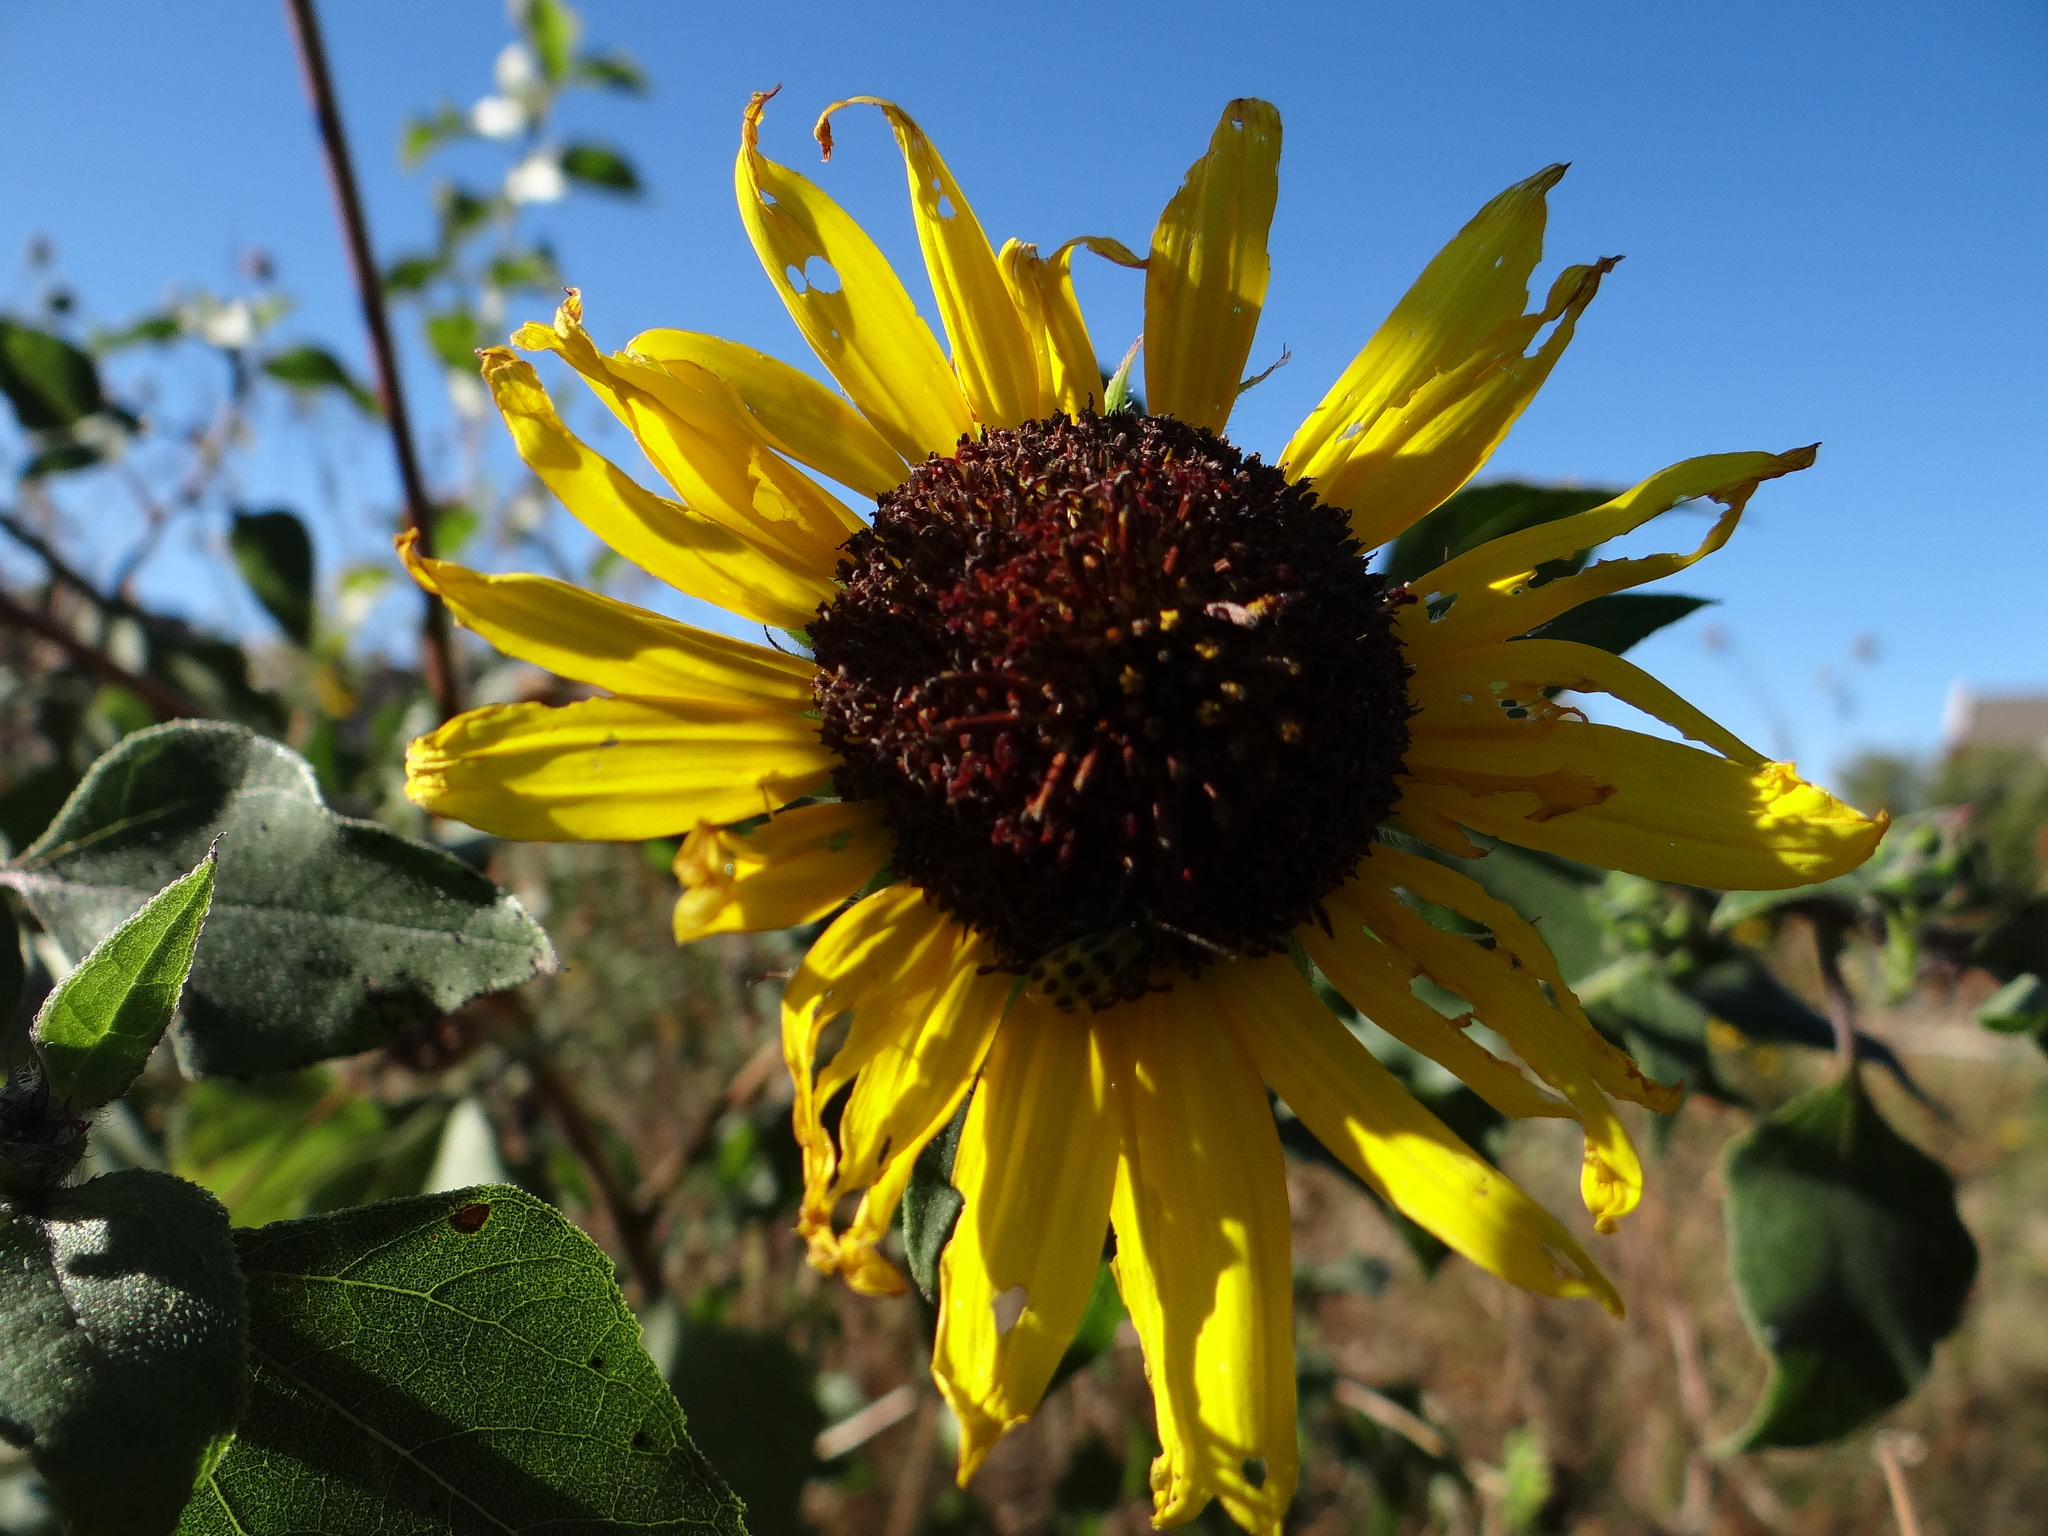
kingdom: Plantae
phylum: Tracheophyta
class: Magnoliopsida
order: Asterales
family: Asteraceae
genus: Helianthus
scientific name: Helianthus annuus
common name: Sunflower
